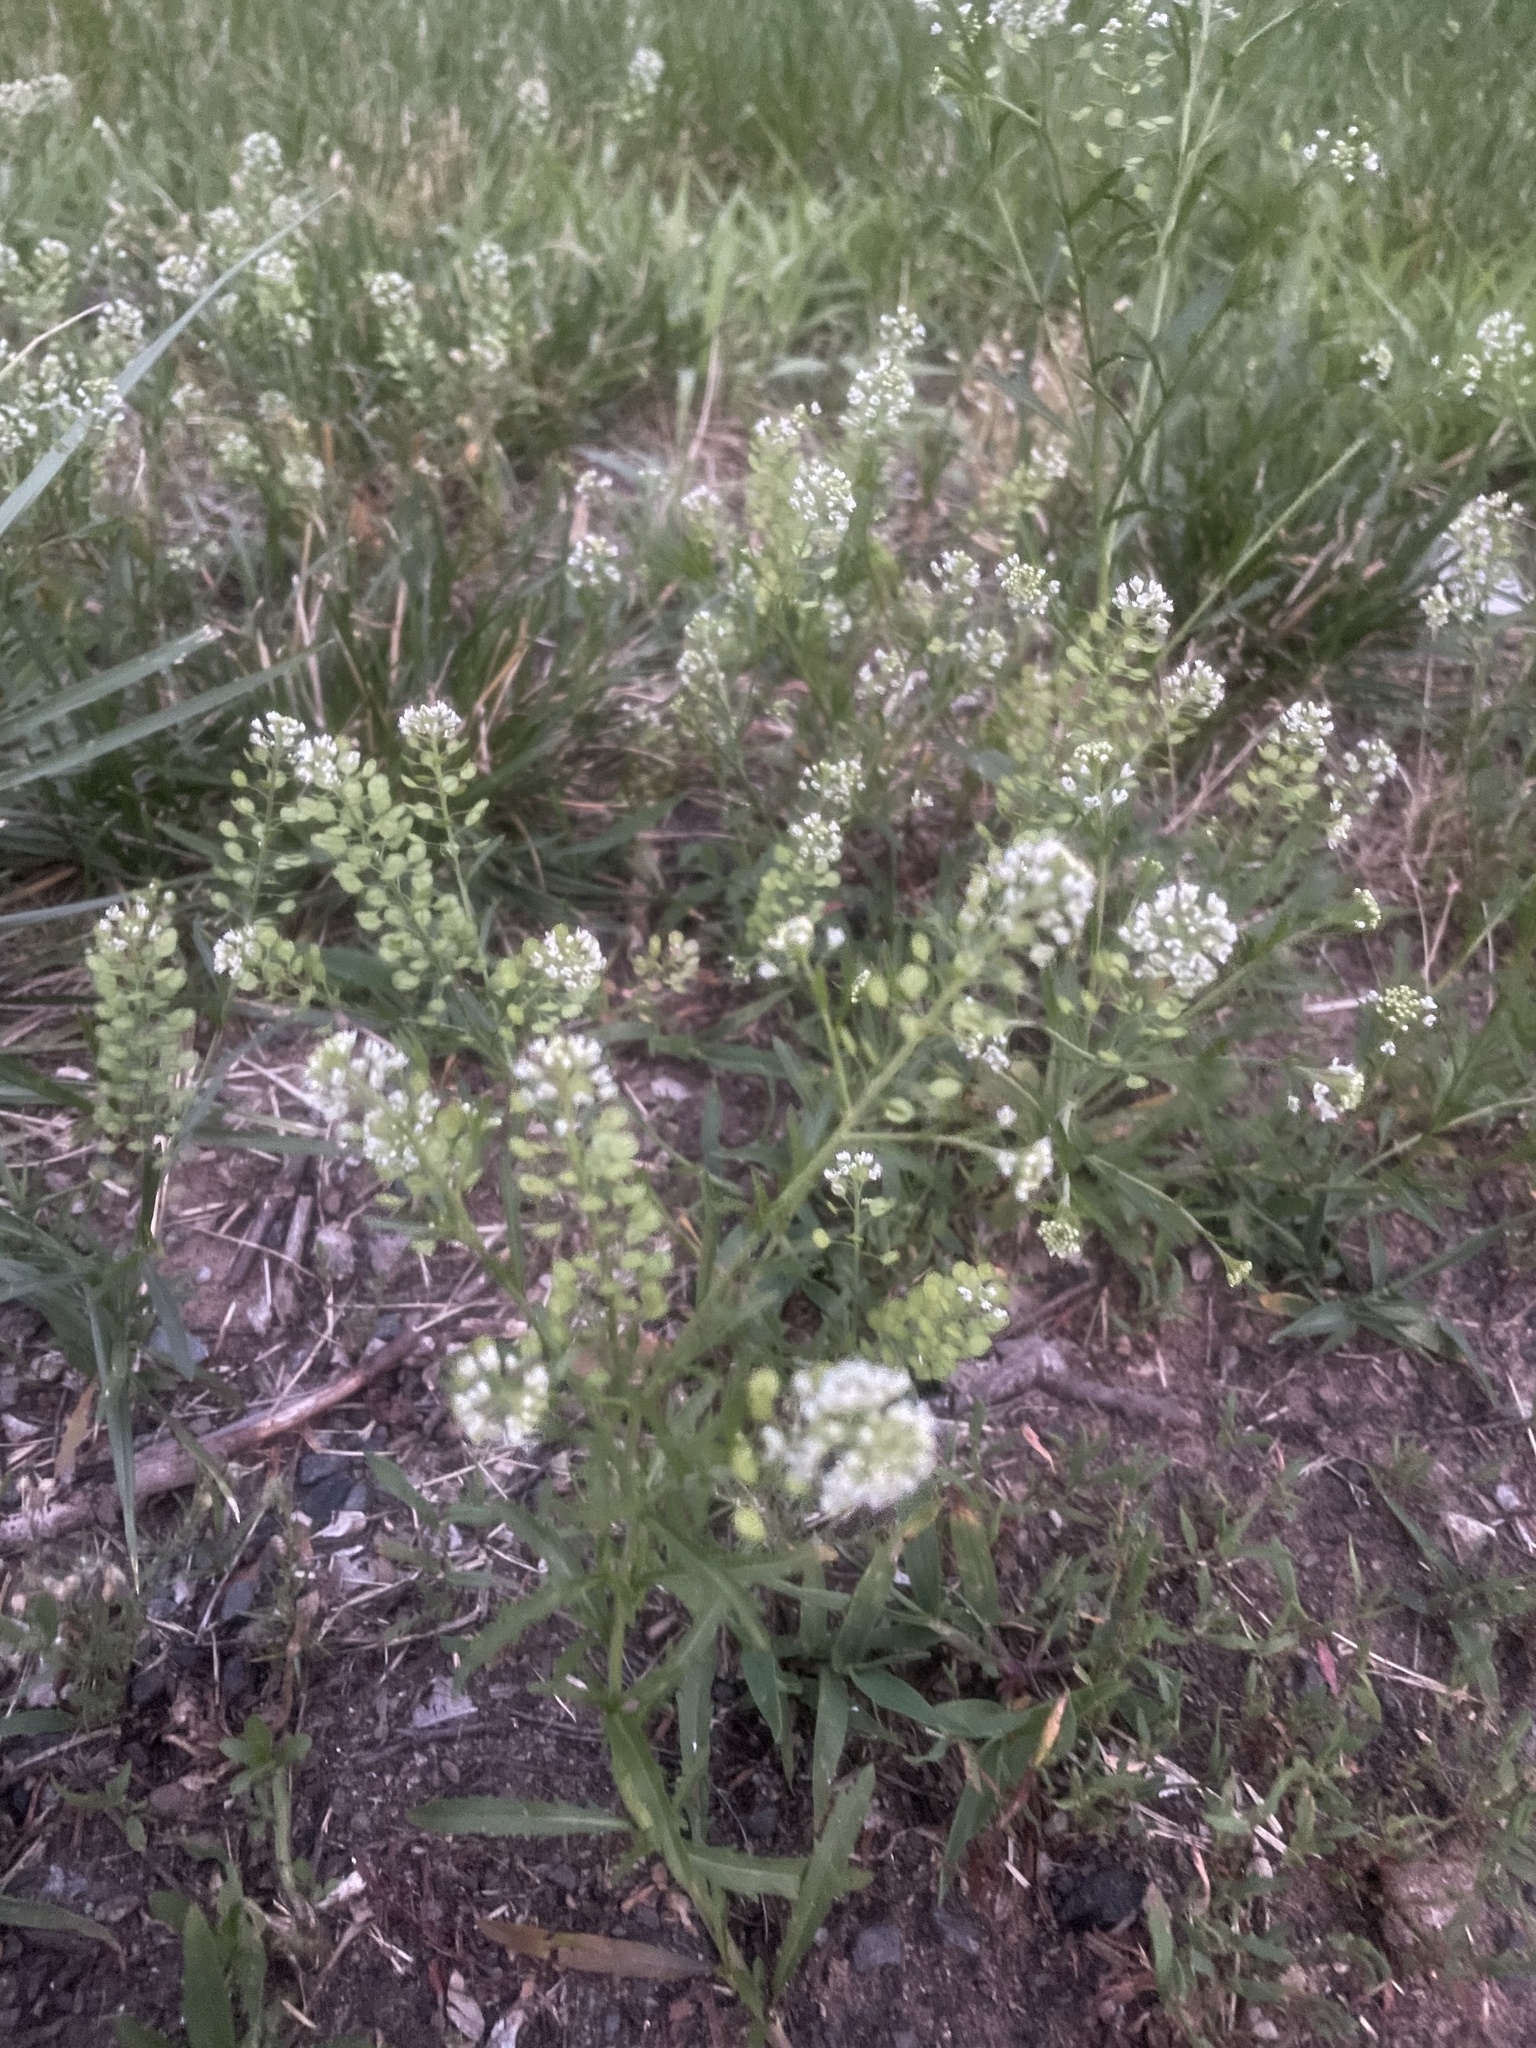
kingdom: Plantae
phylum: Tracheophyta
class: Magnoliopsida
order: Brassicales
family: Brassicaceae
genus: Lepidium
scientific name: Lepidium virginicum
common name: Least pepperwort
